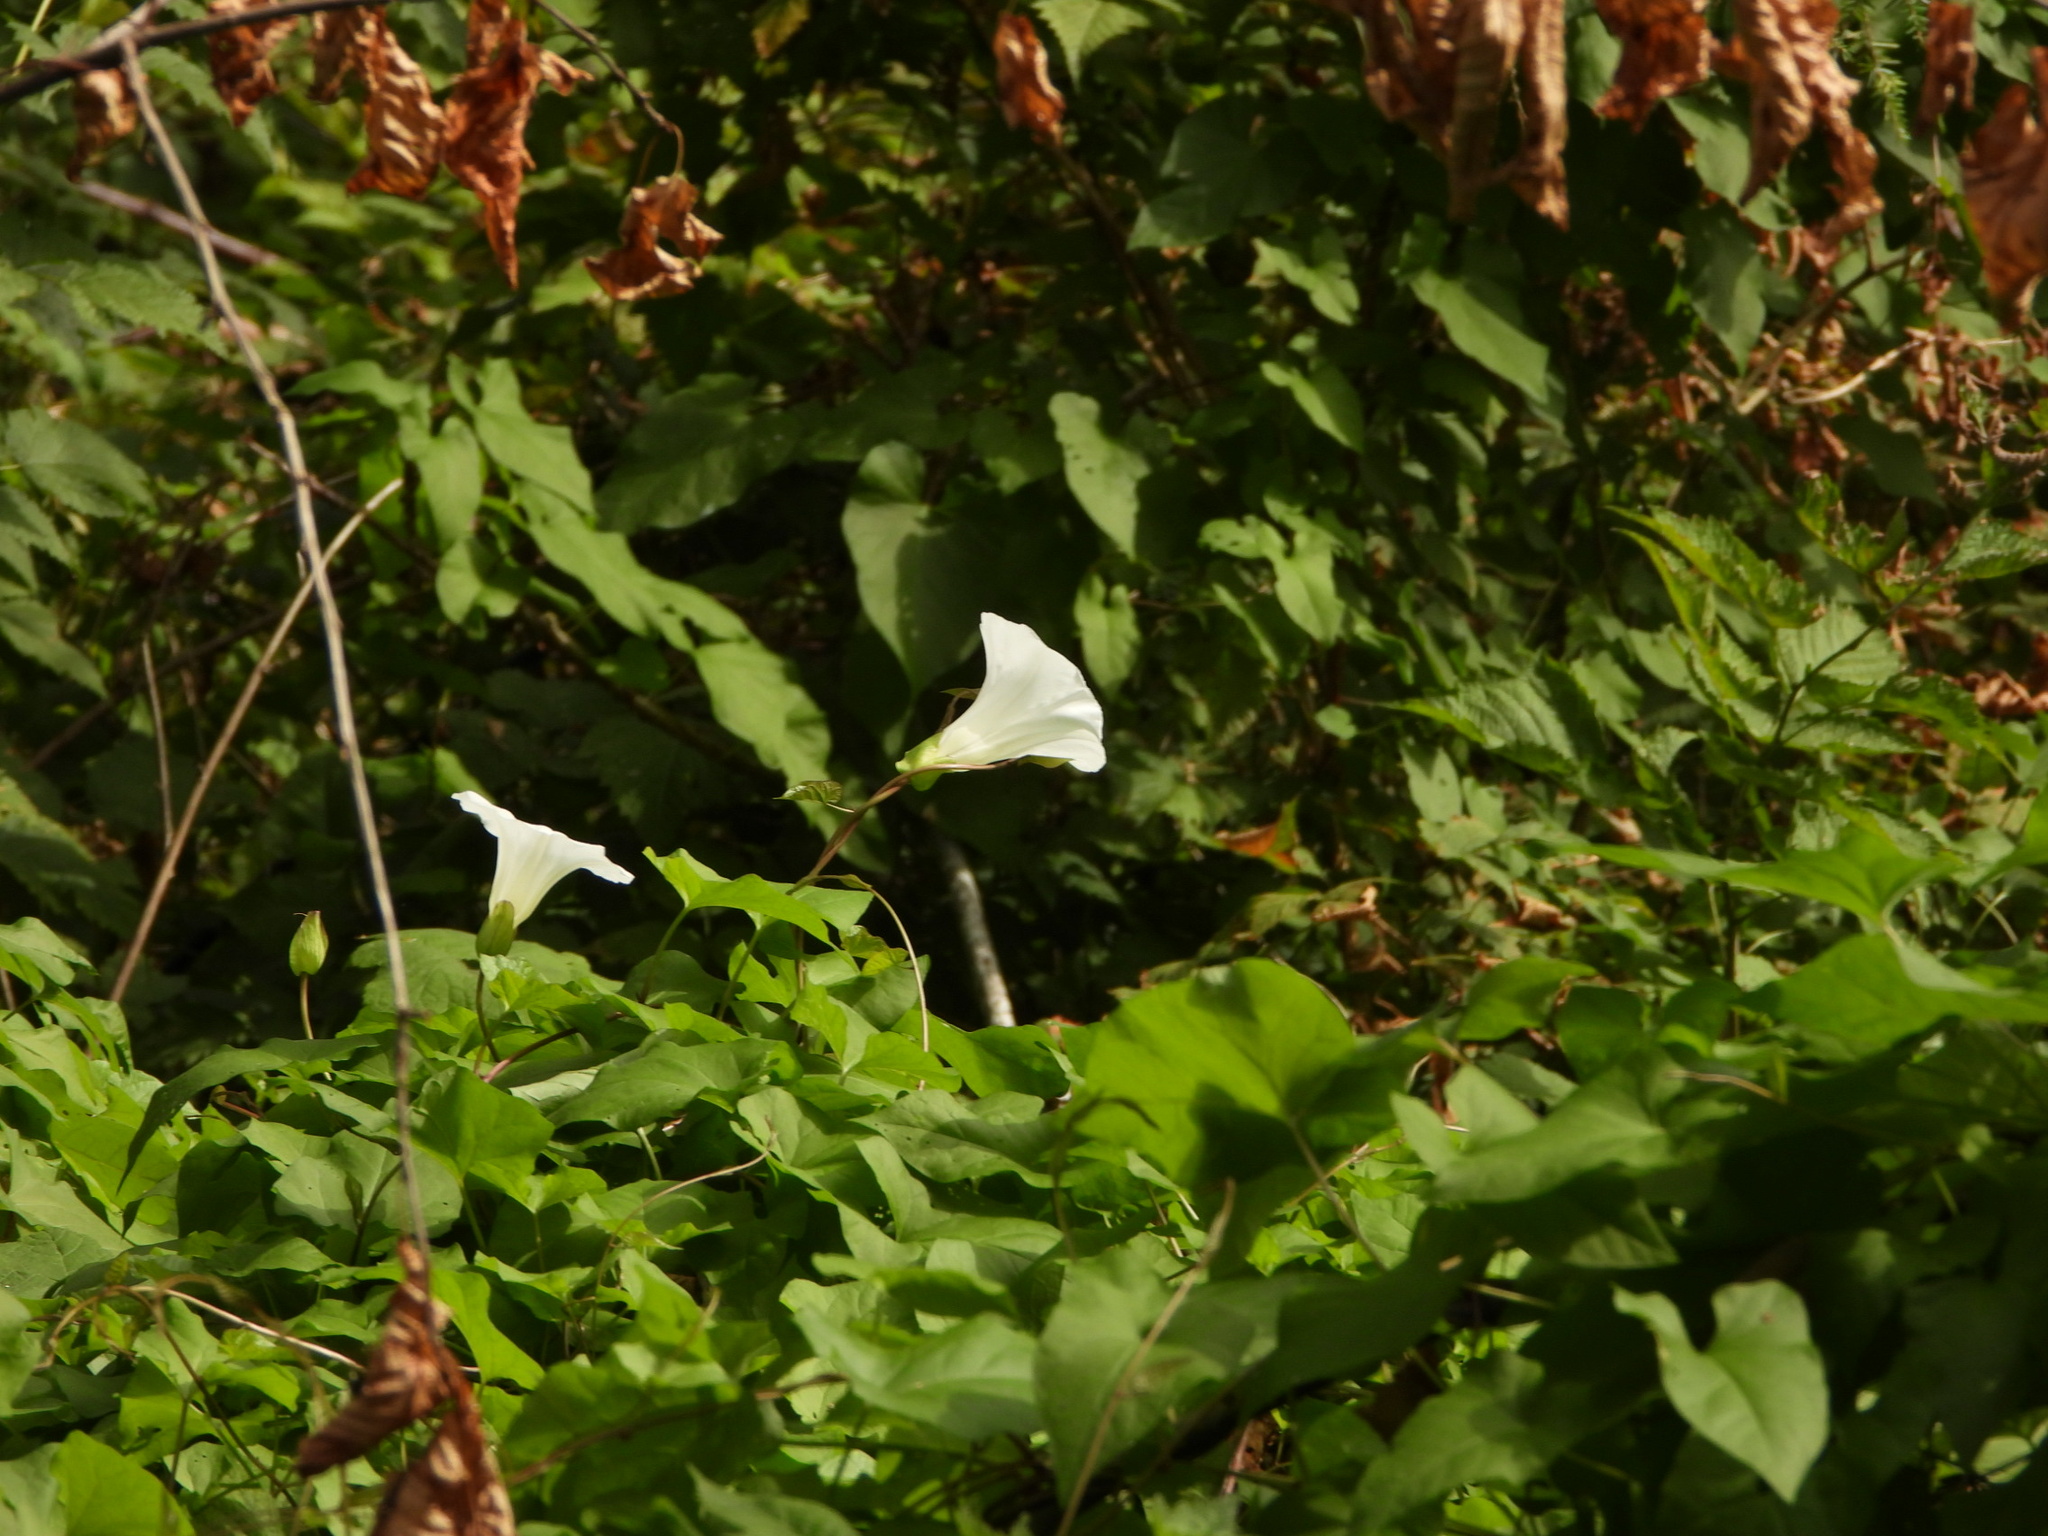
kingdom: Plantae
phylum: Tracheophyta
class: Magnoliopsida
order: Solanales
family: Convolvulaceae
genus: Calystegia
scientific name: Calystegia silvatica
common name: Large bindweed
